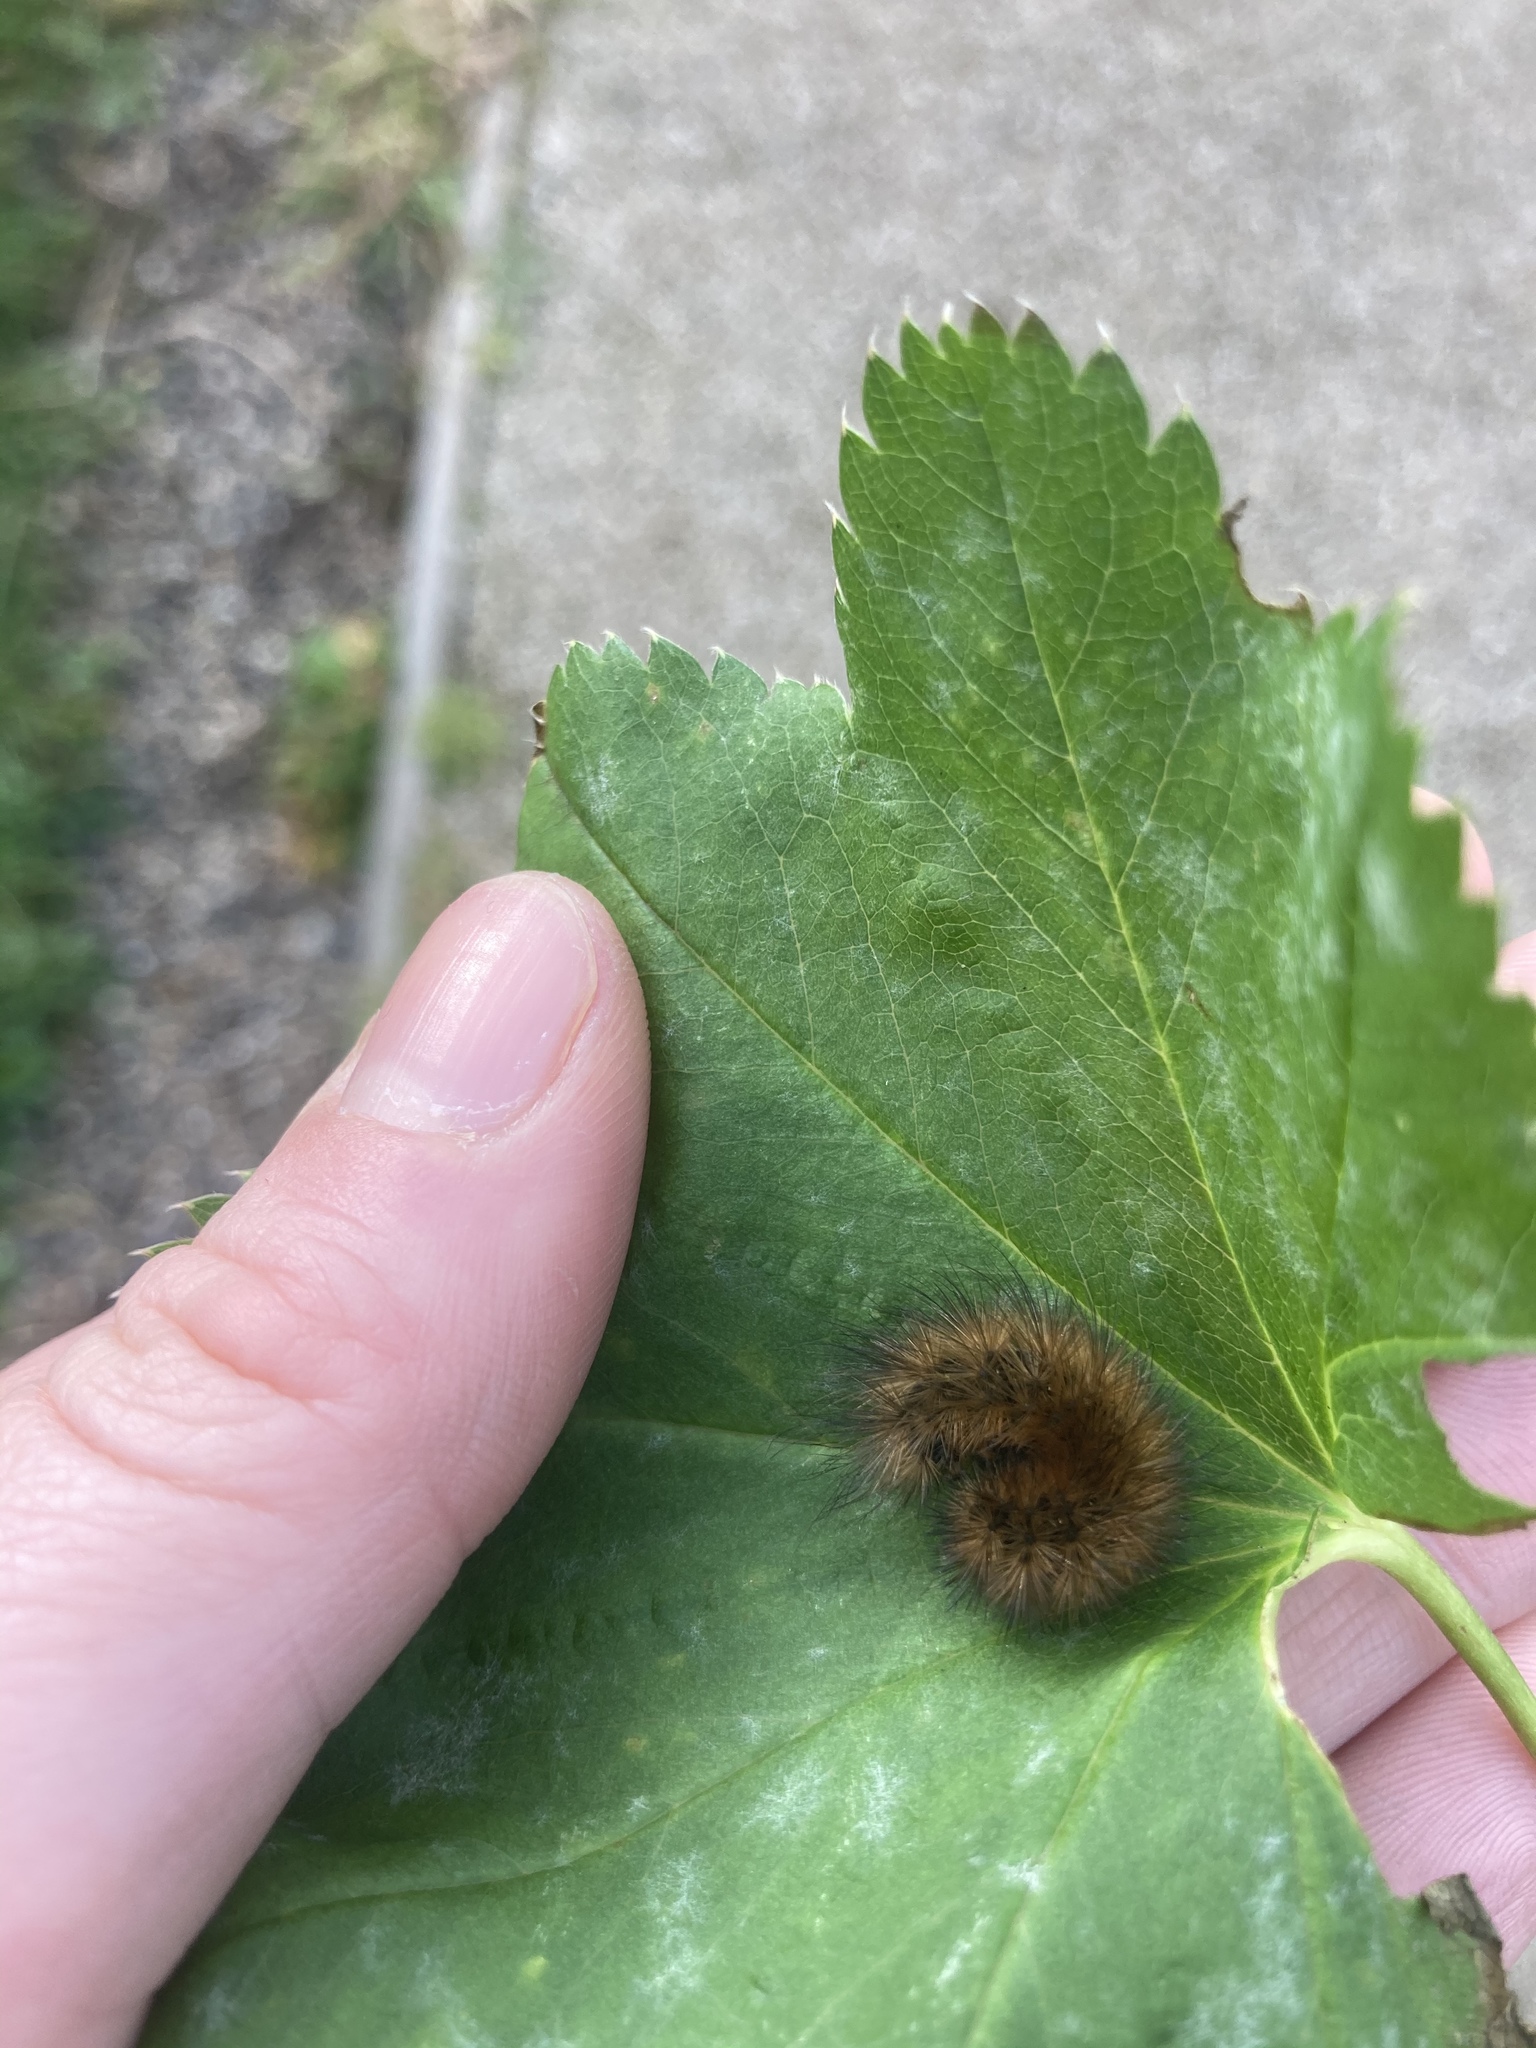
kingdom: Animalia
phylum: Arthropoda
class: Insecta
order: Lepidoptera
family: Erebidae
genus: Phragmatobia
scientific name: Phragmatobia fuliginosa
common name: Ruby tiger
